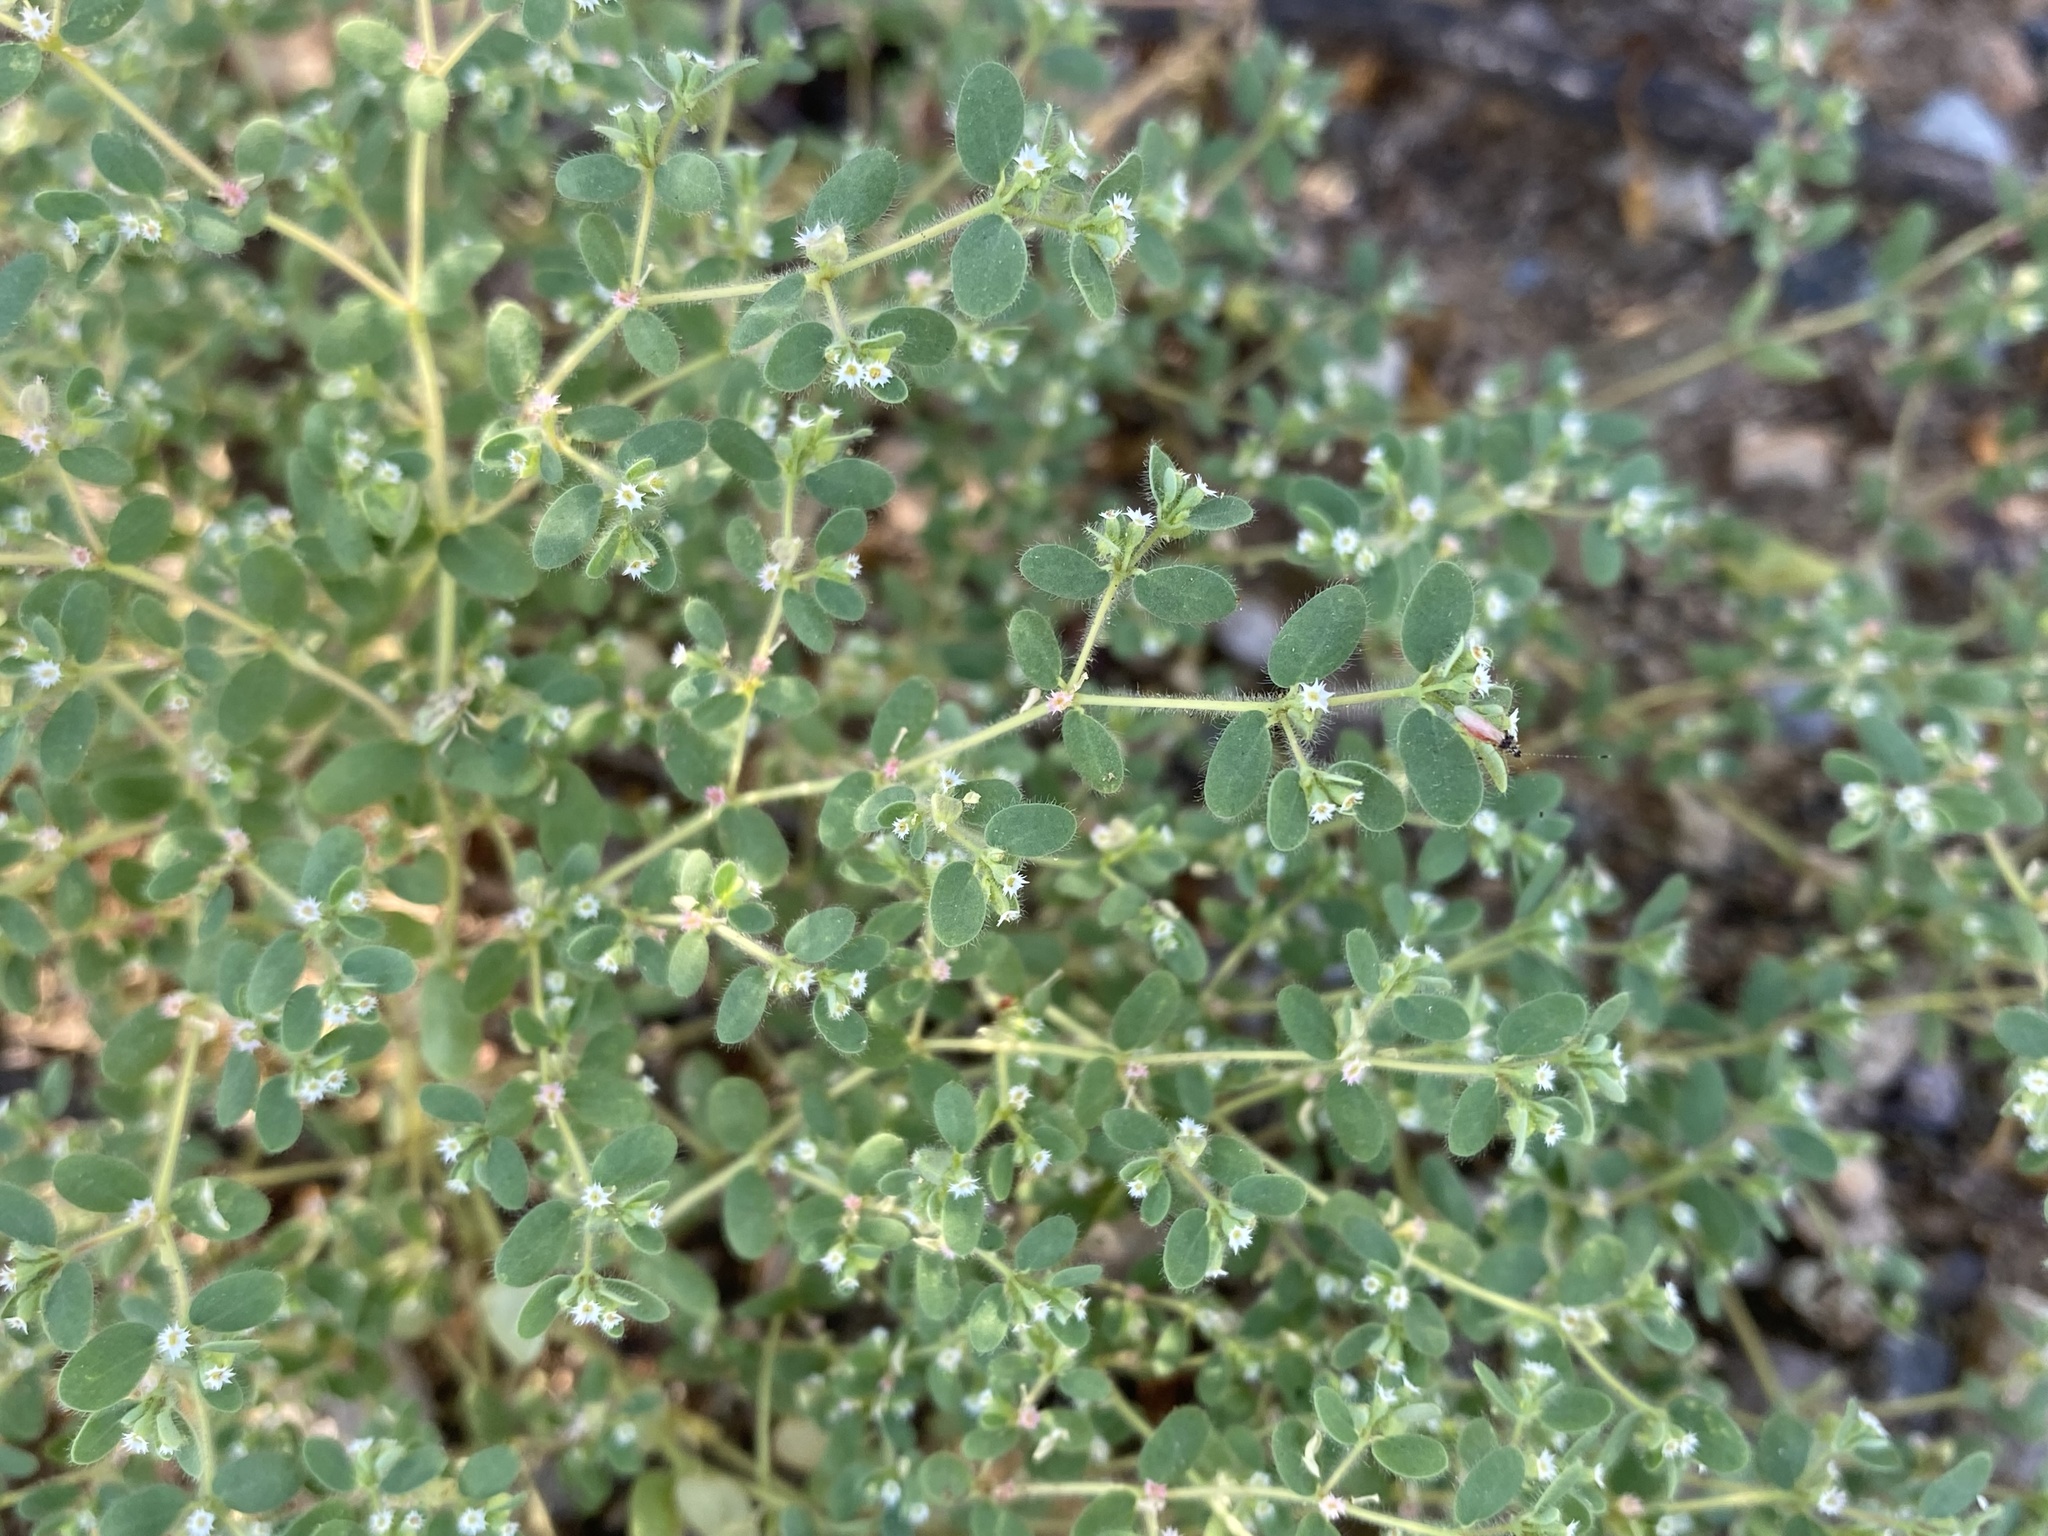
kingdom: Plantae
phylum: Tracheophyta
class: Magnoliopsida
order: Malpighiales
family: Euphorbiaceae
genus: Euphorbia
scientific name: Euphorbia setiloba
